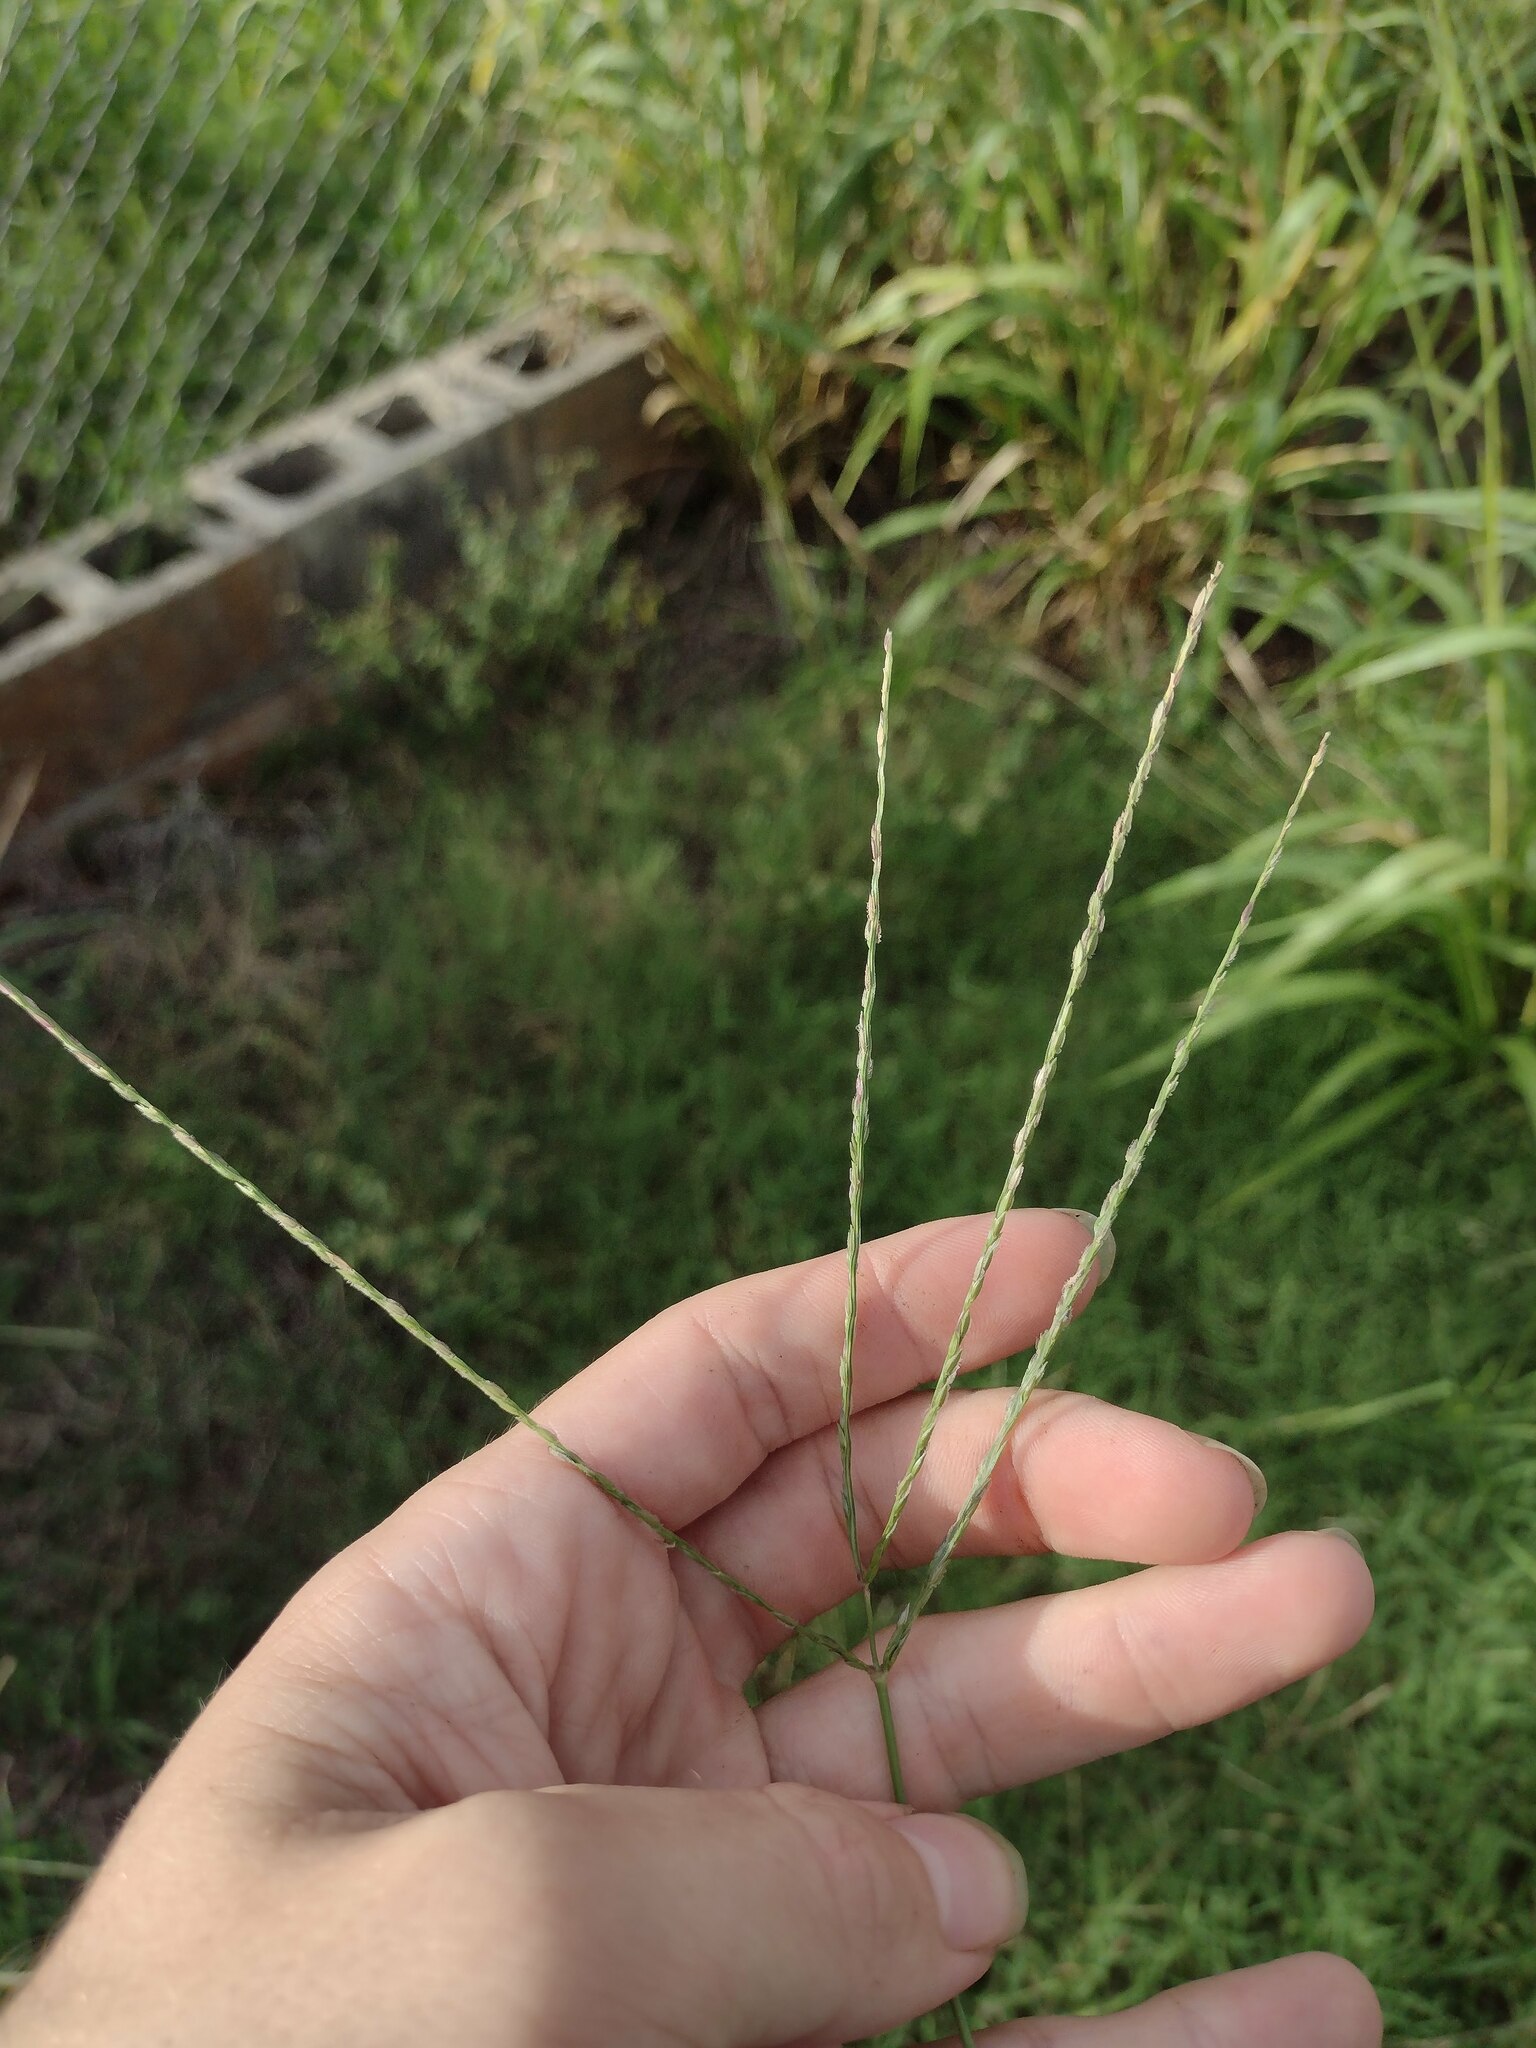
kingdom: Plantae
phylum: Tracheophyta
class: Liliopsida
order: Poales
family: Poaceae
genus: Digitaria
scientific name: Digitaria ciliaris
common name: Tropical finger-grass
